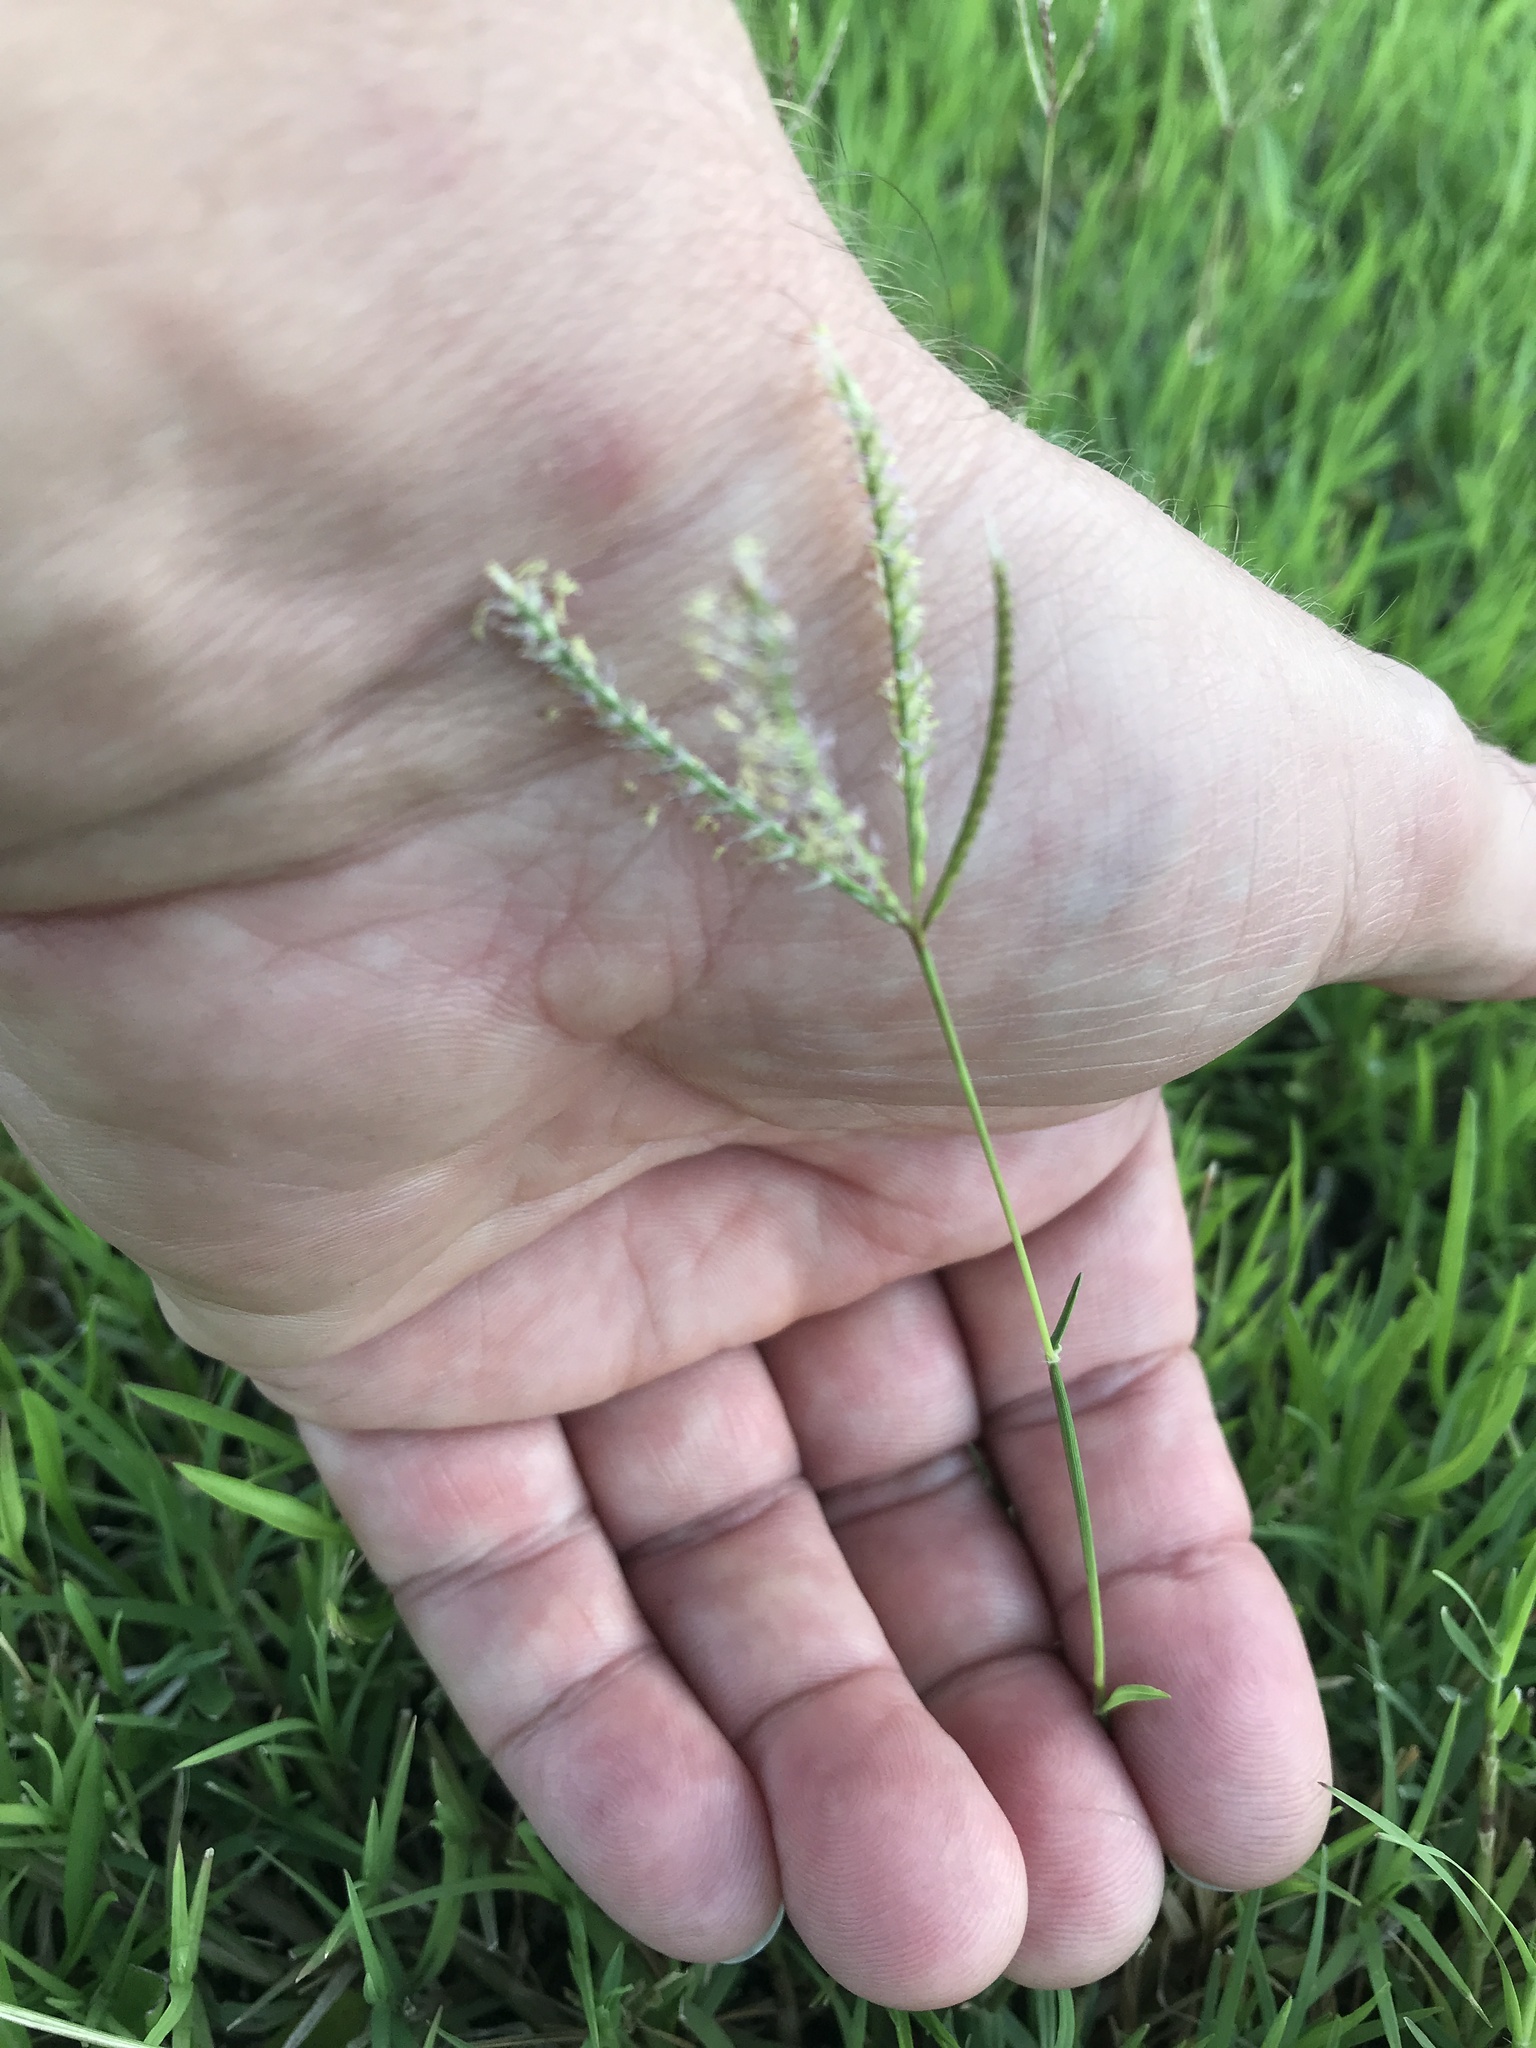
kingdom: Plantae
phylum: Tracheophyta
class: Liliopsida
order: Poales
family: Poaceae
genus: Cynodon
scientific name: Cynodon dactylon
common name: Bermuda grass
